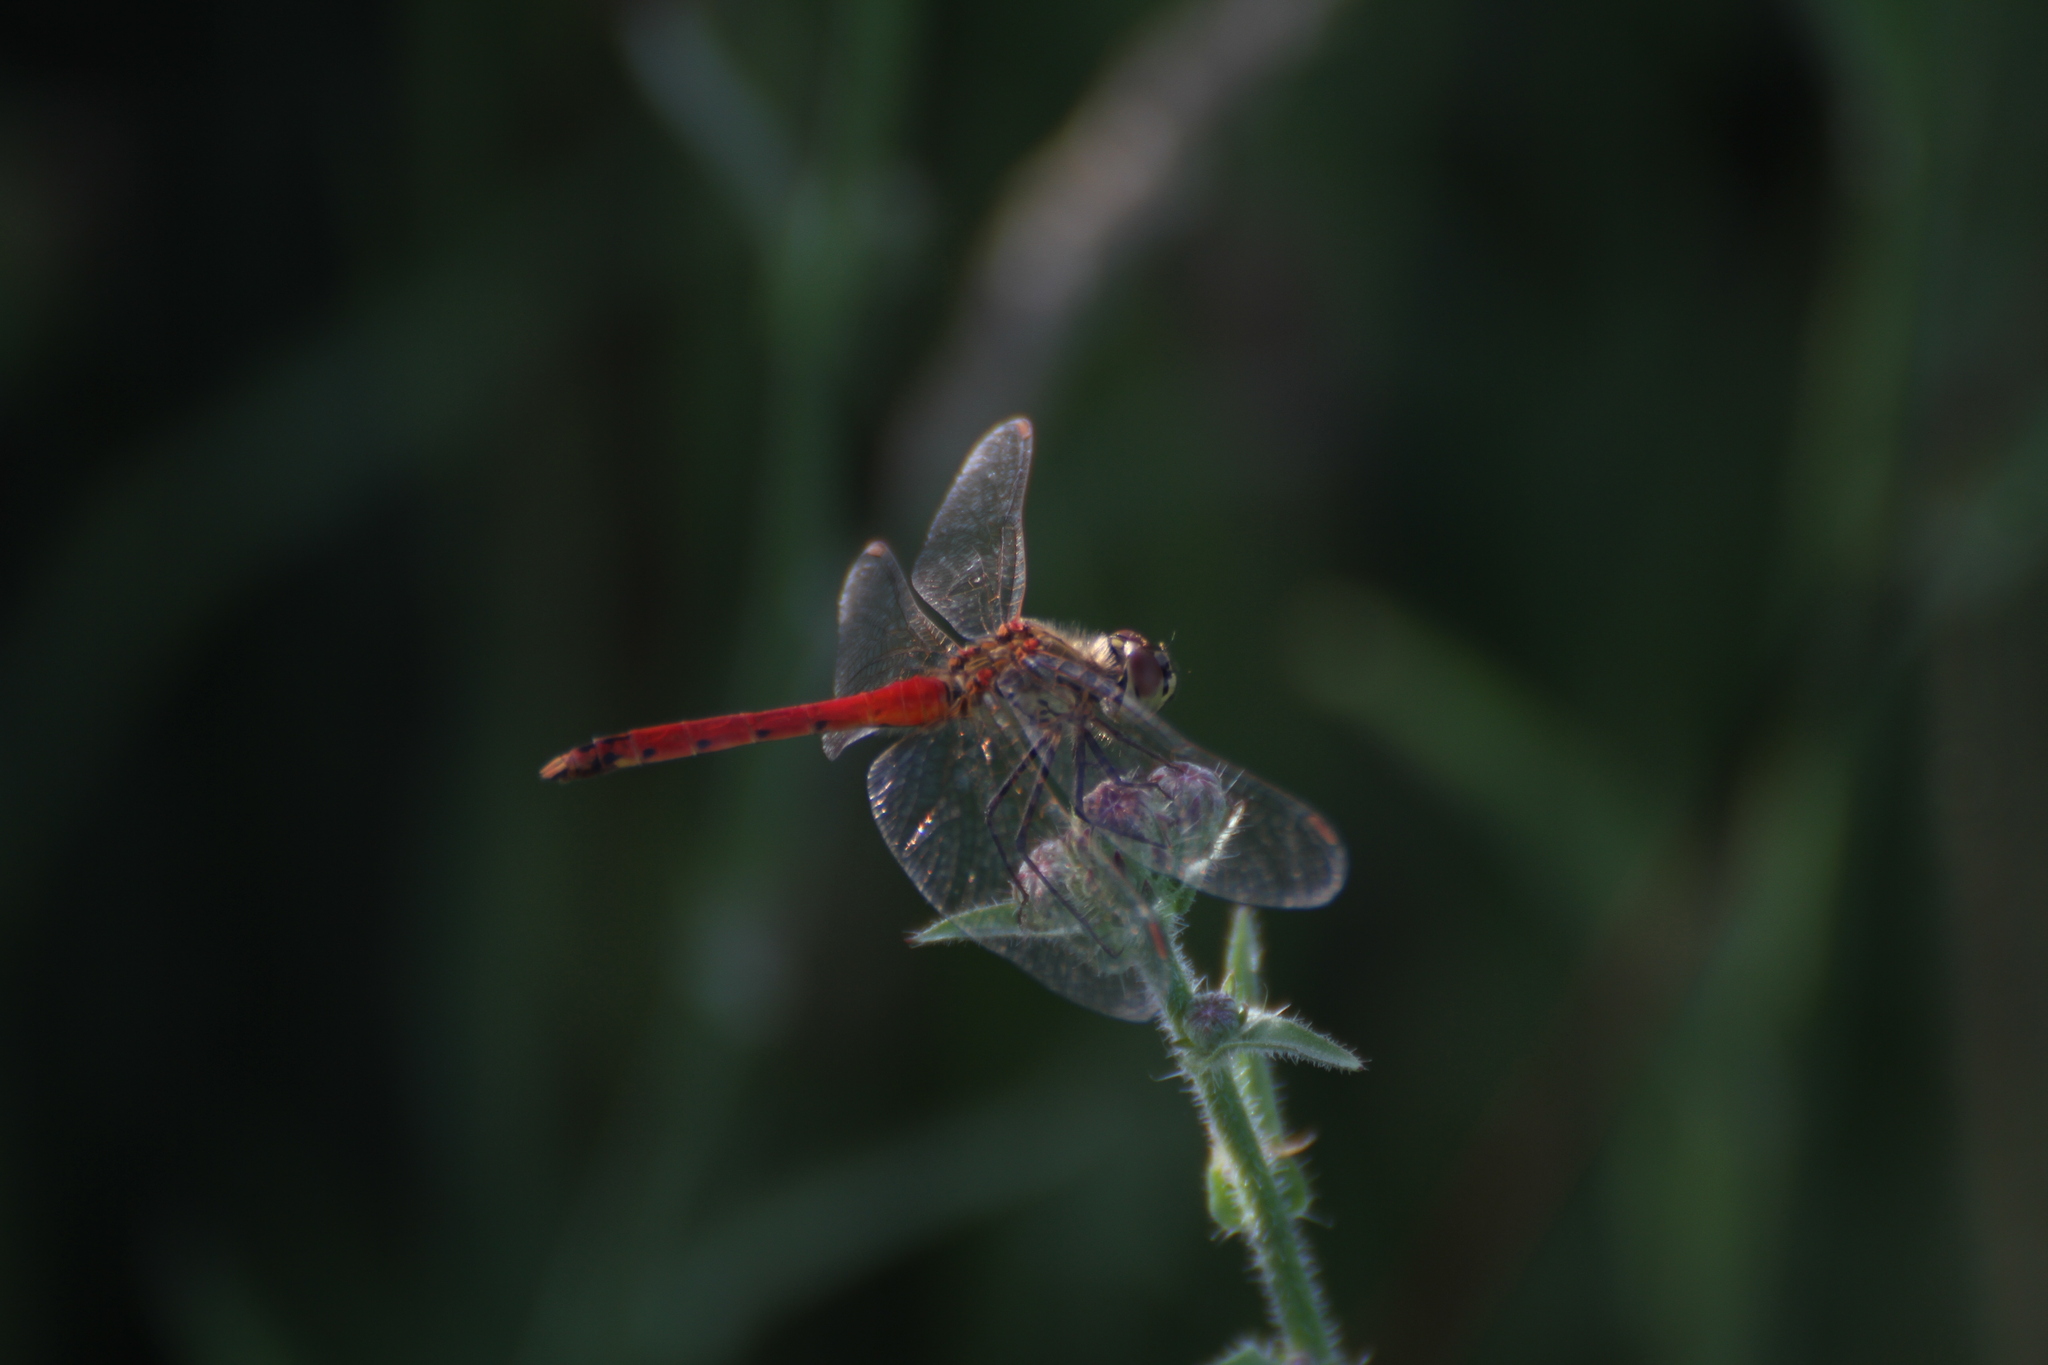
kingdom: Animalia
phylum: Arthropoda
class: Insecta
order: Odonata
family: Libellulidae
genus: Sympetrum
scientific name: Sympetrum depressiusculum
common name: Spotted darter
